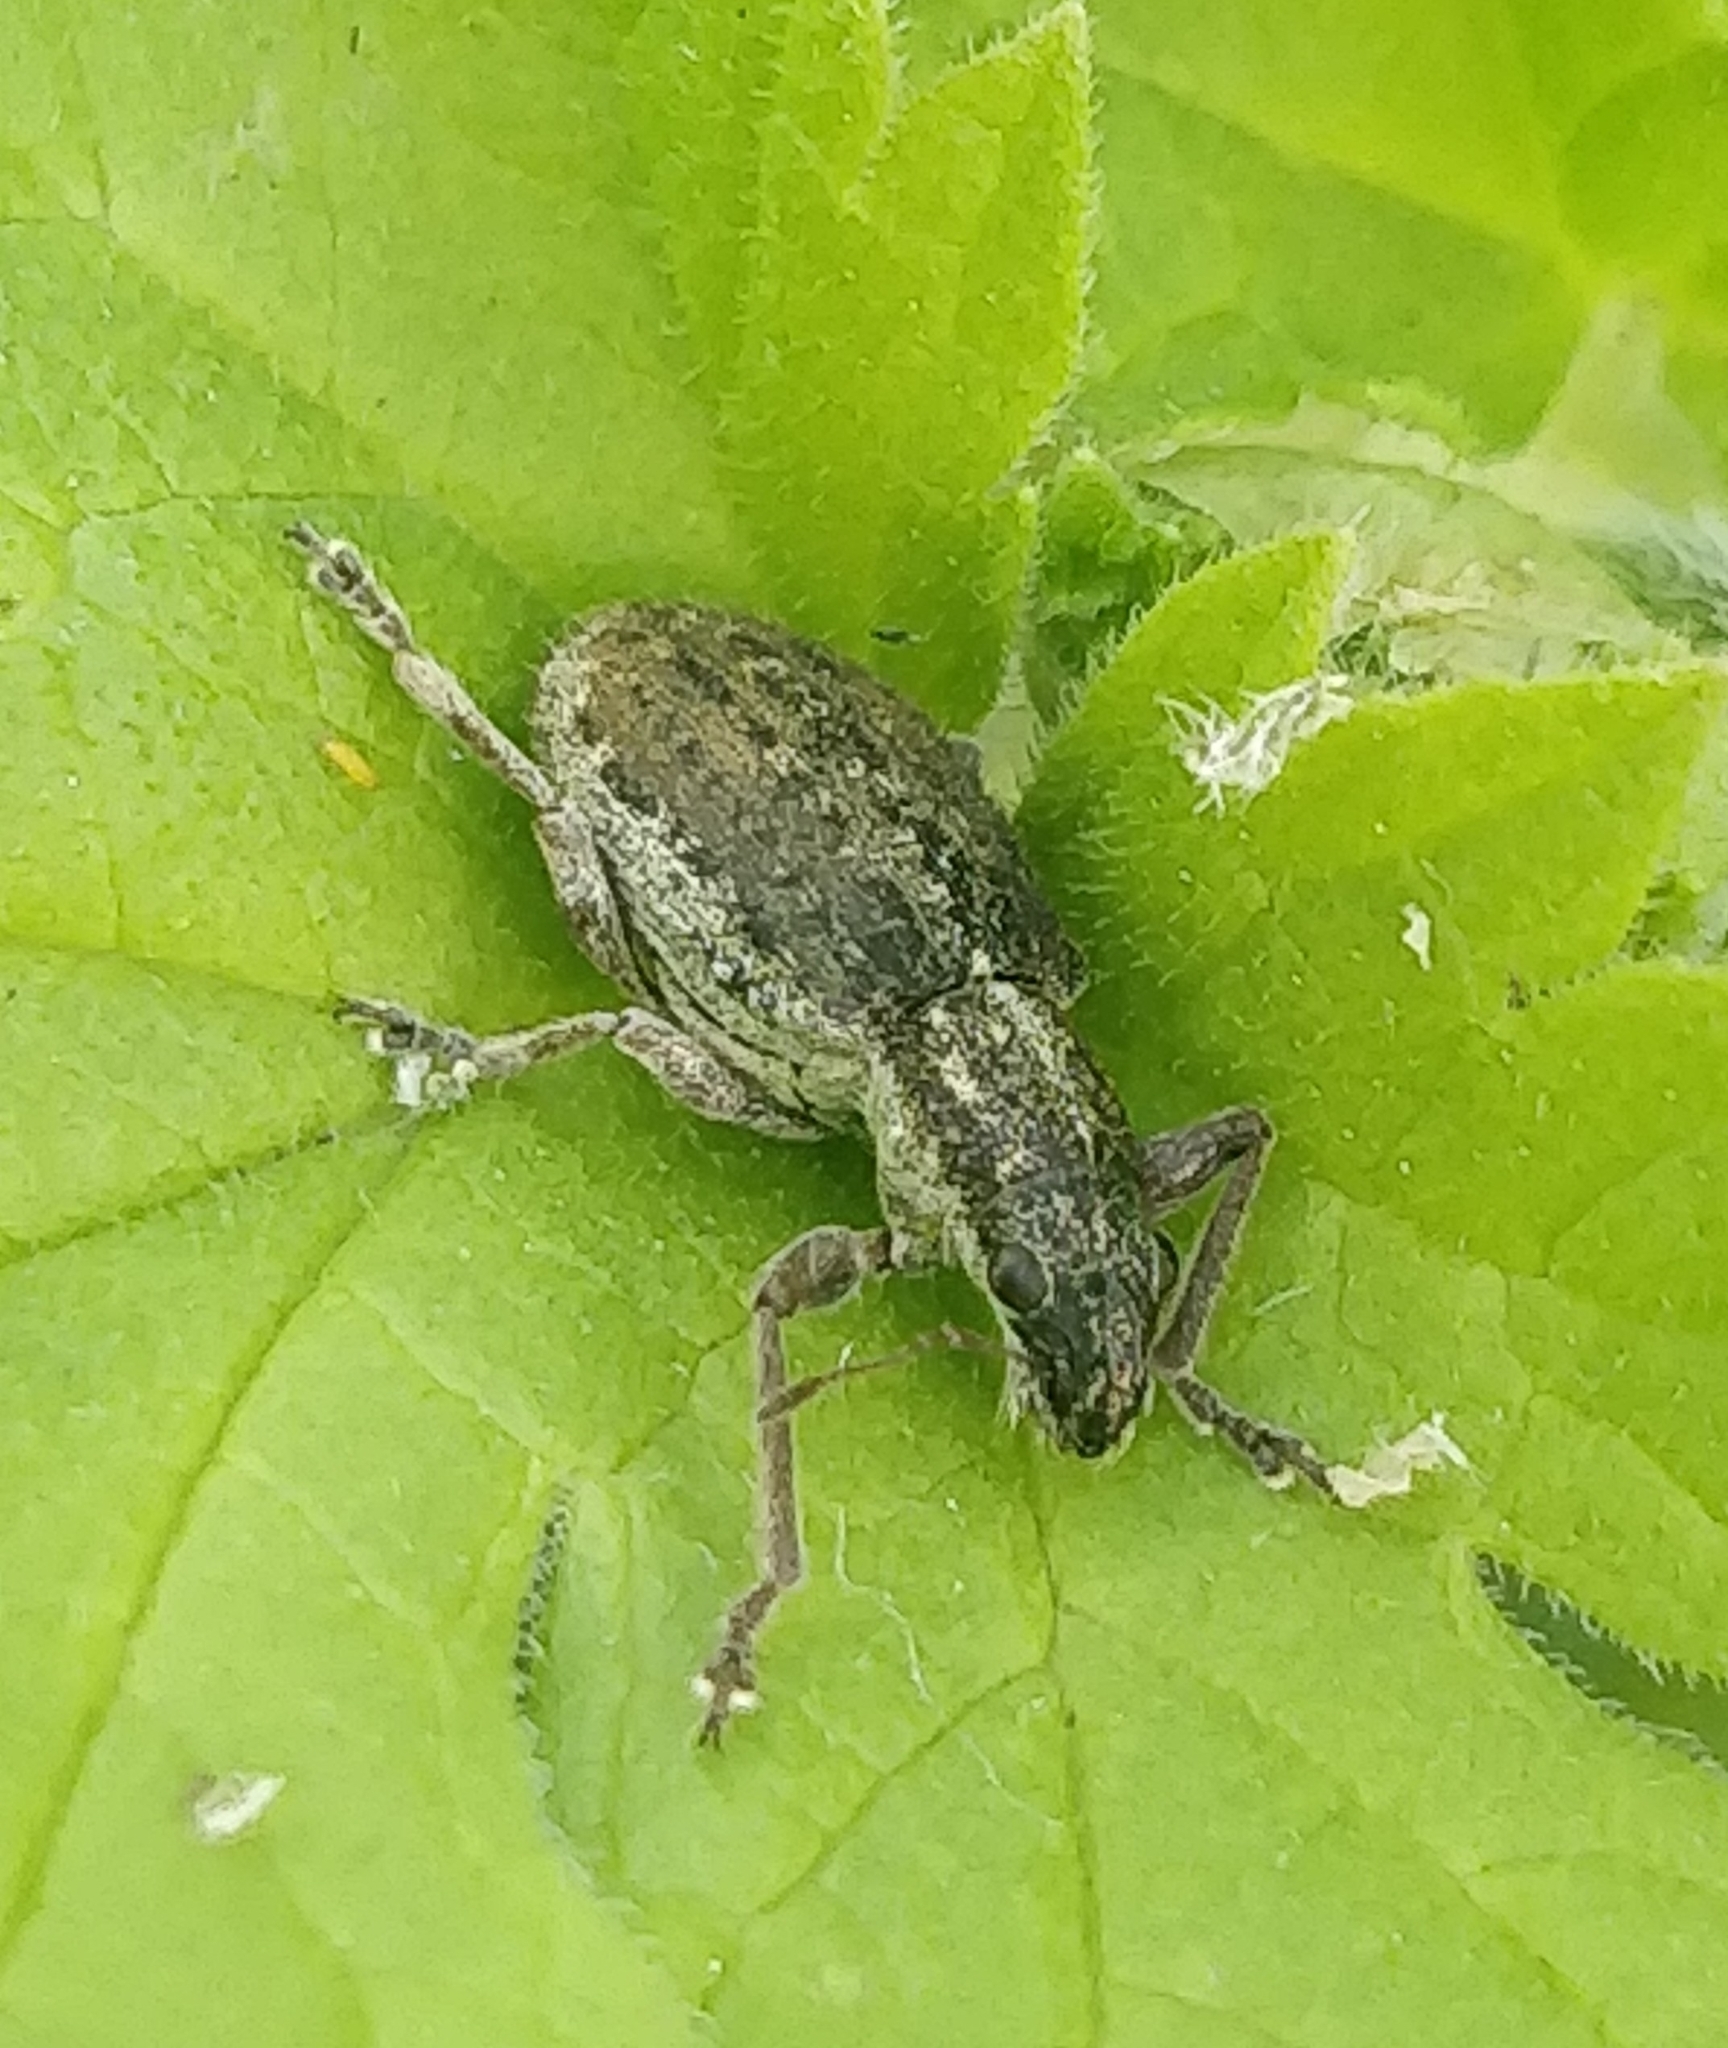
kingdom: Animalia
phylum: Arthropoda
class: Insecta
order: Coleoptera
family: Curculionidae
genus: Coelositona
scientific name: Coelositona verrucosus
